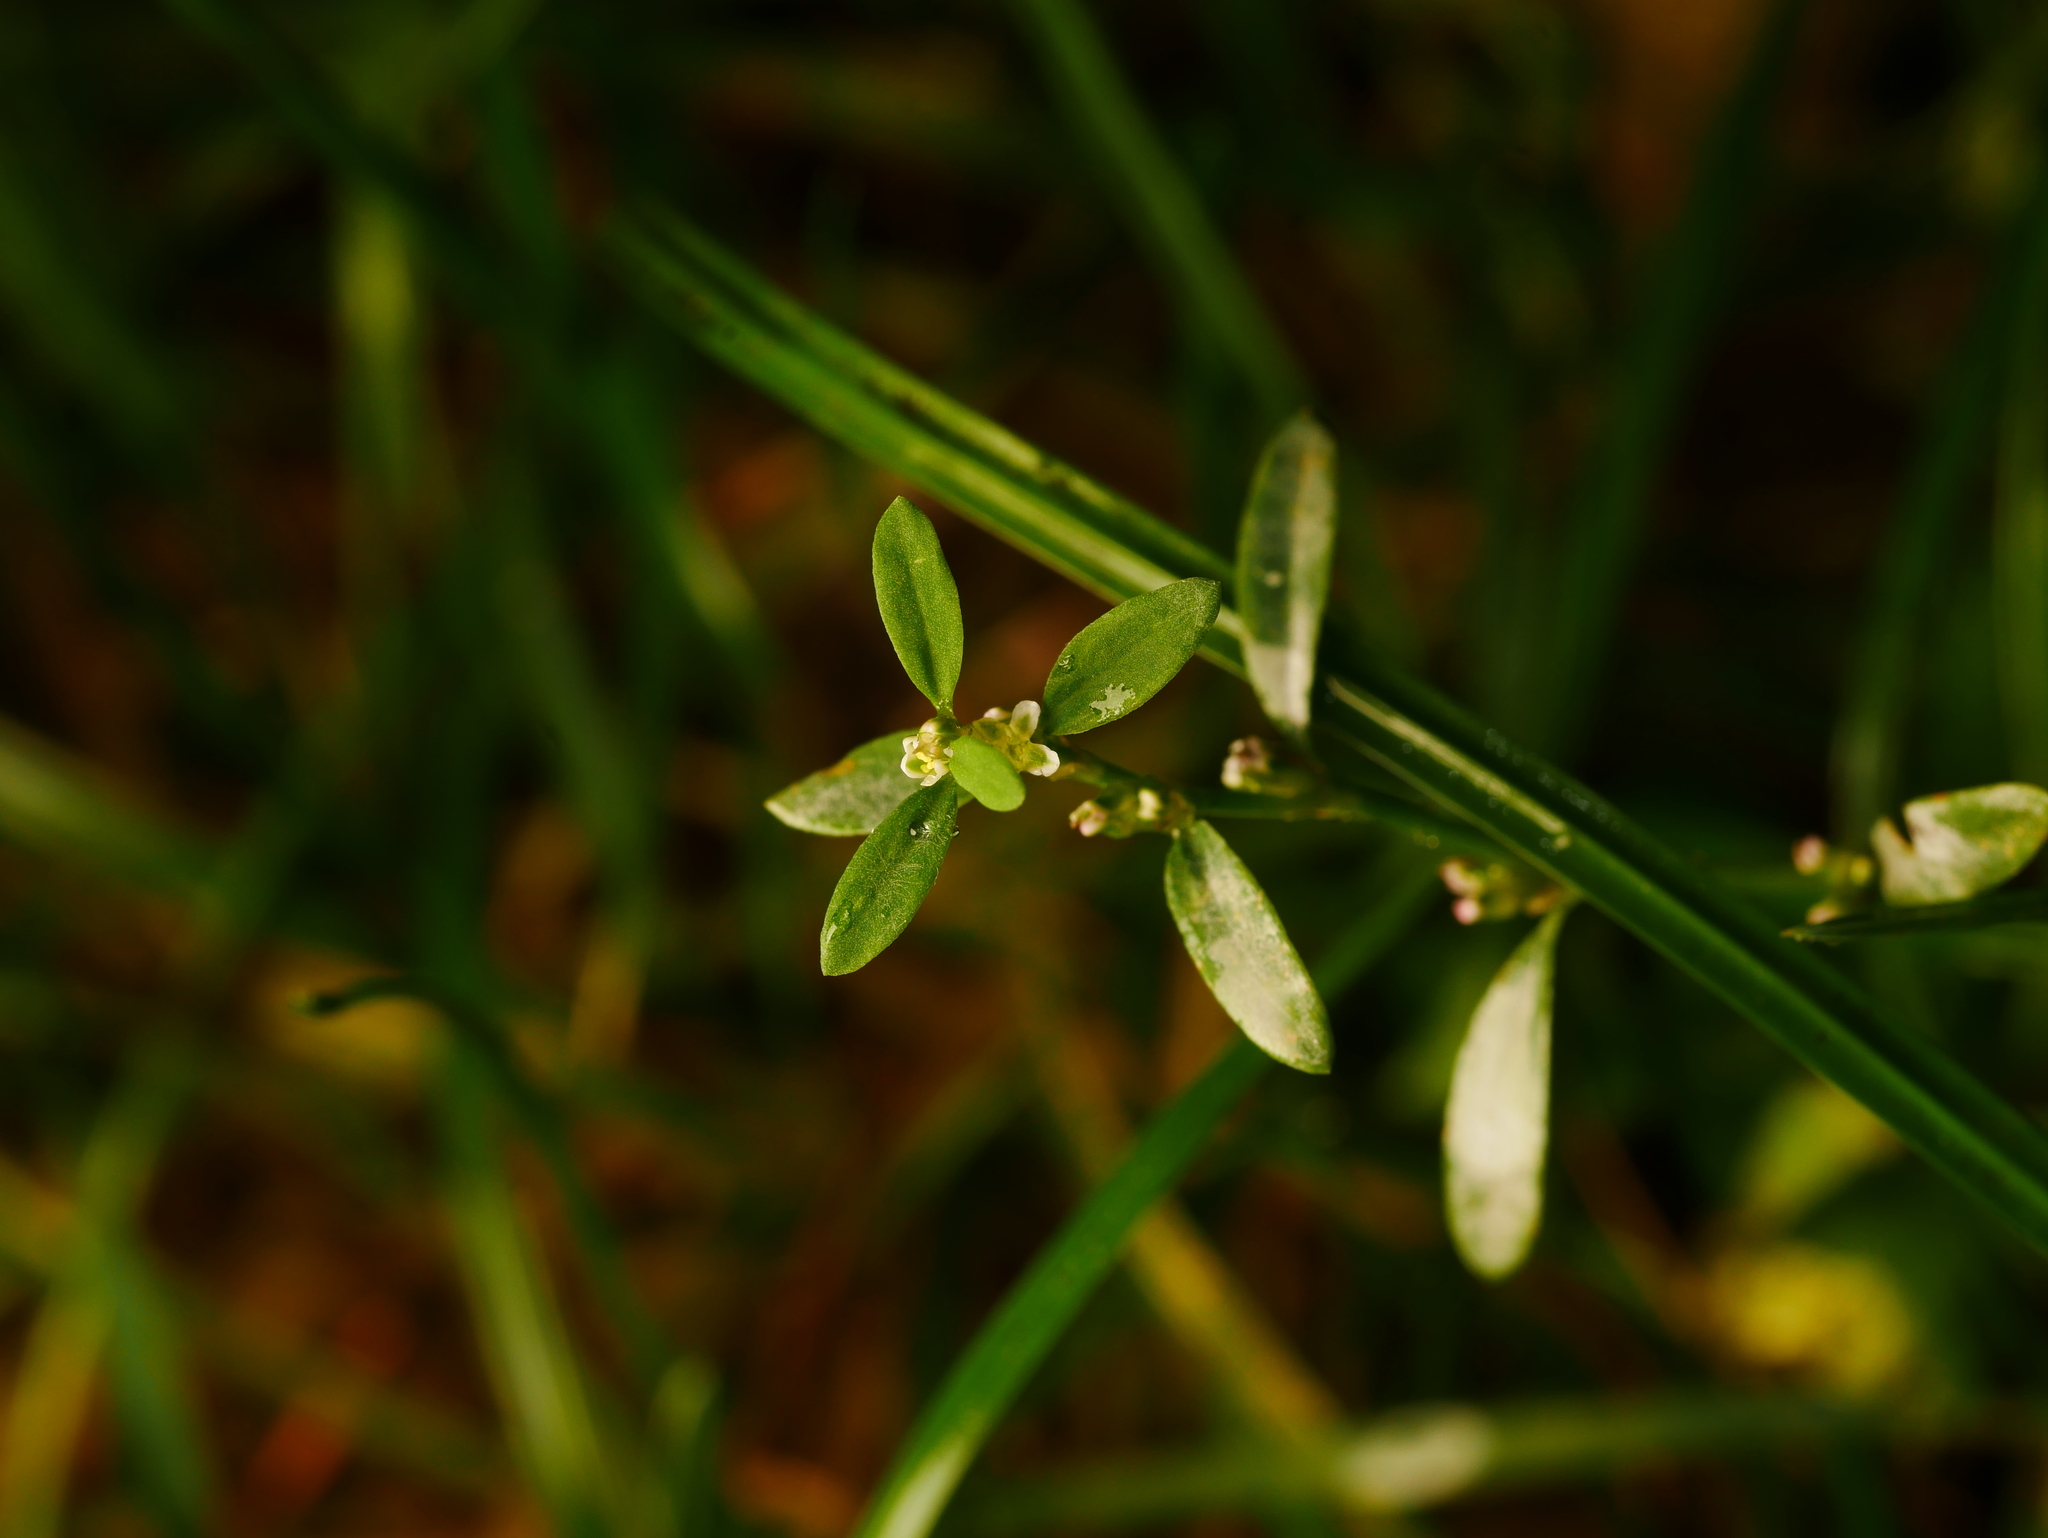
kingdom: Fungi
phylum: Ascomycota
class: Leotiomycetes
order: Helotiales
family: Erysiphaceae
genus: Erysiphe
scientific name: Erysiphe polygoni
